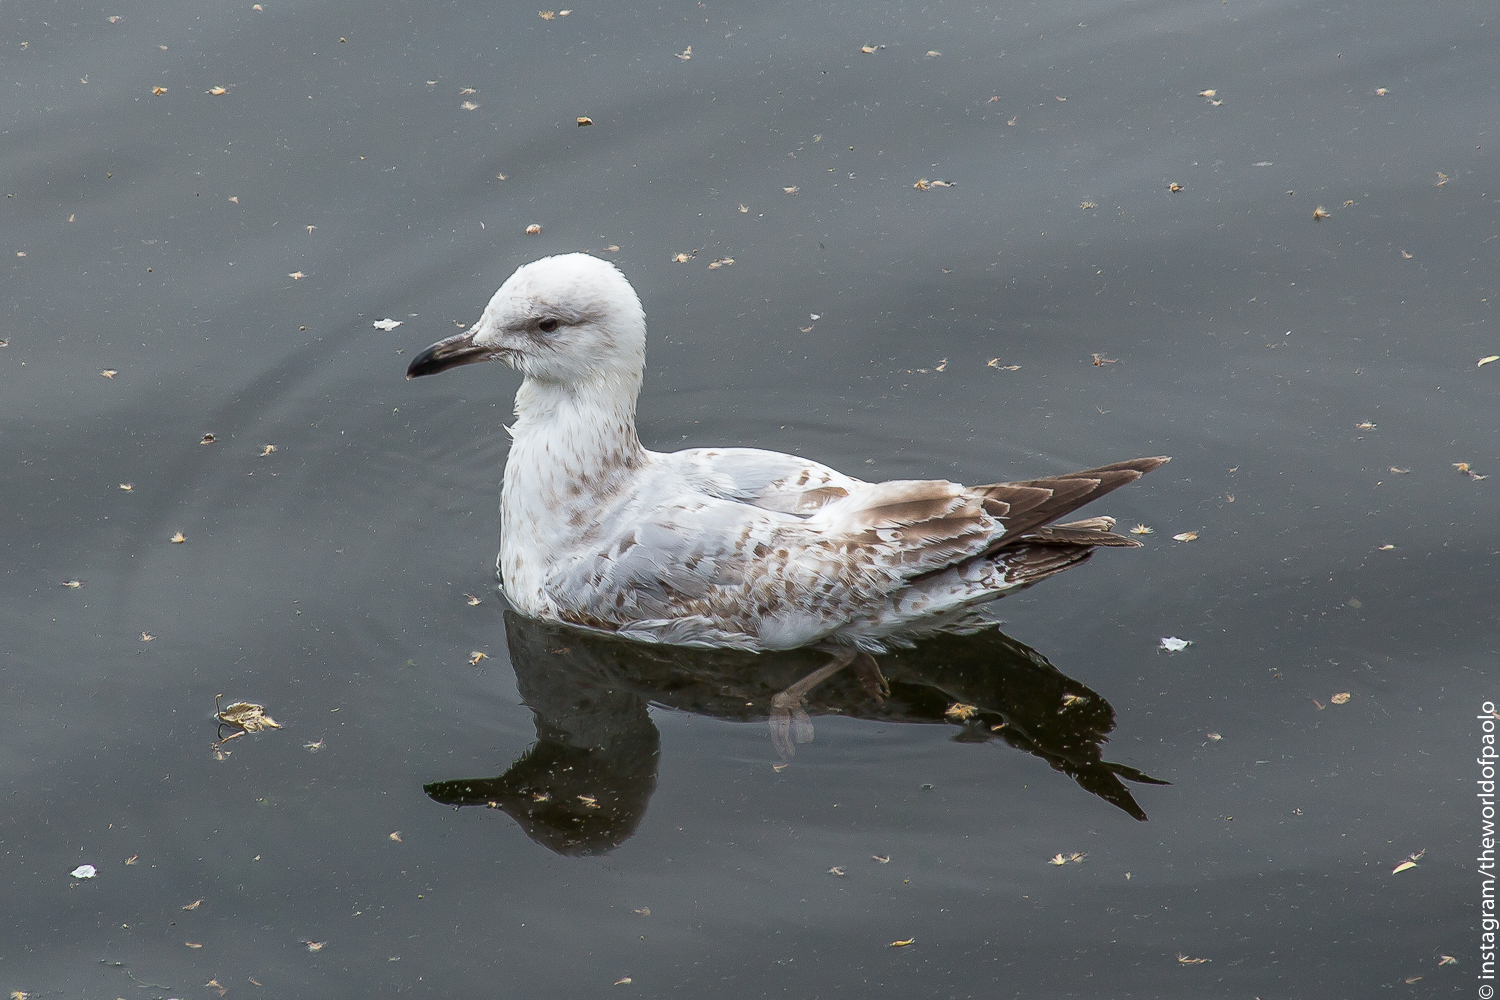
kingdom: Animalia
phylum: Chordata
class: Aves
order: Charadriiformes
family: Laridae
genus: Larus
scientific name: Larus argentatus
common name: Herring gull
